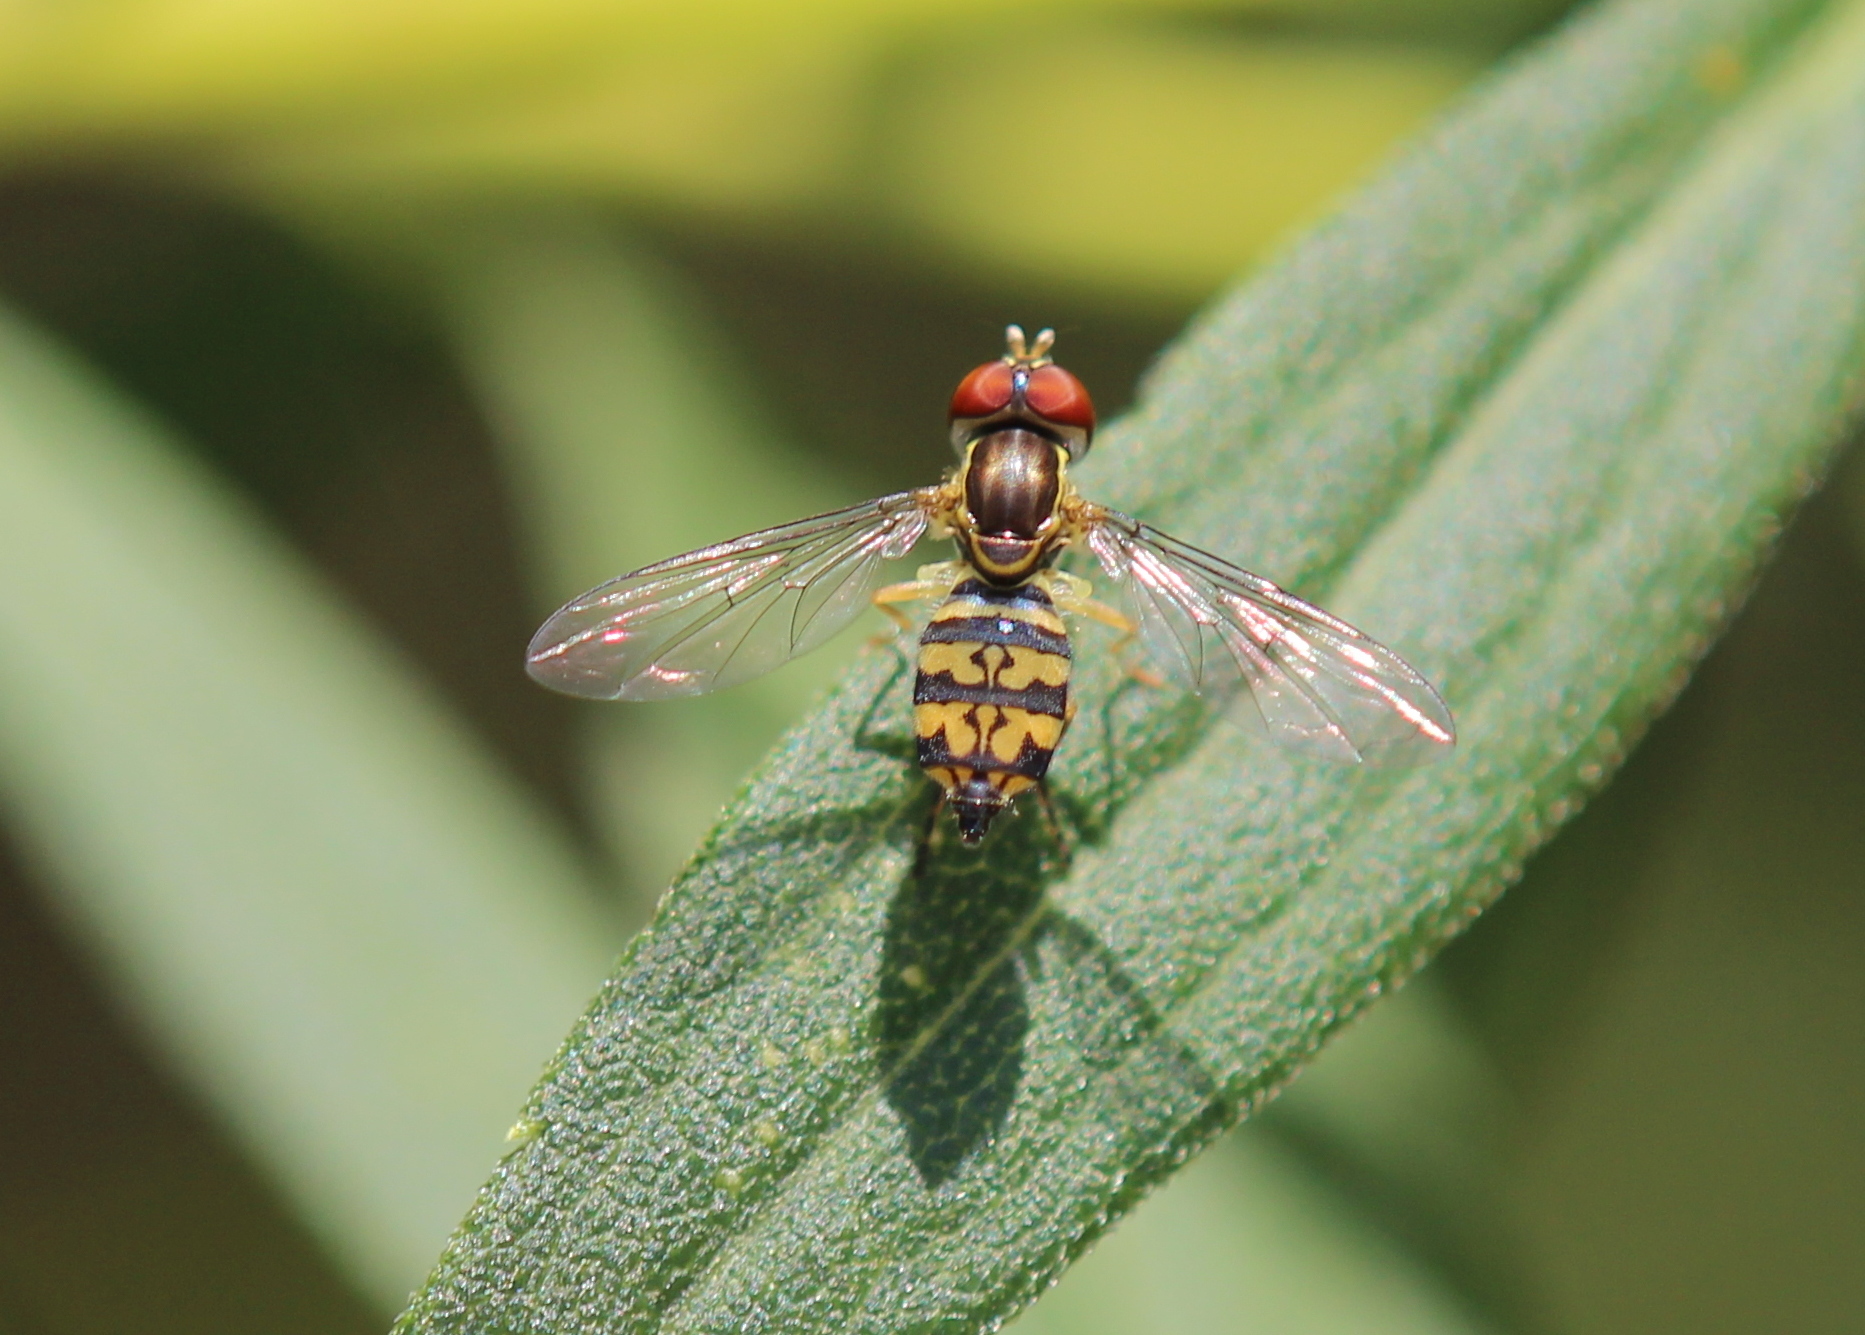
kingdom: Animalia
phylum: Arthropoda
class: Insecta
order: Diptera
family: Syrphidae
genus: Toxomerus
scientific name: Toxomerus geminatus
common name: Eastern calligrapher
